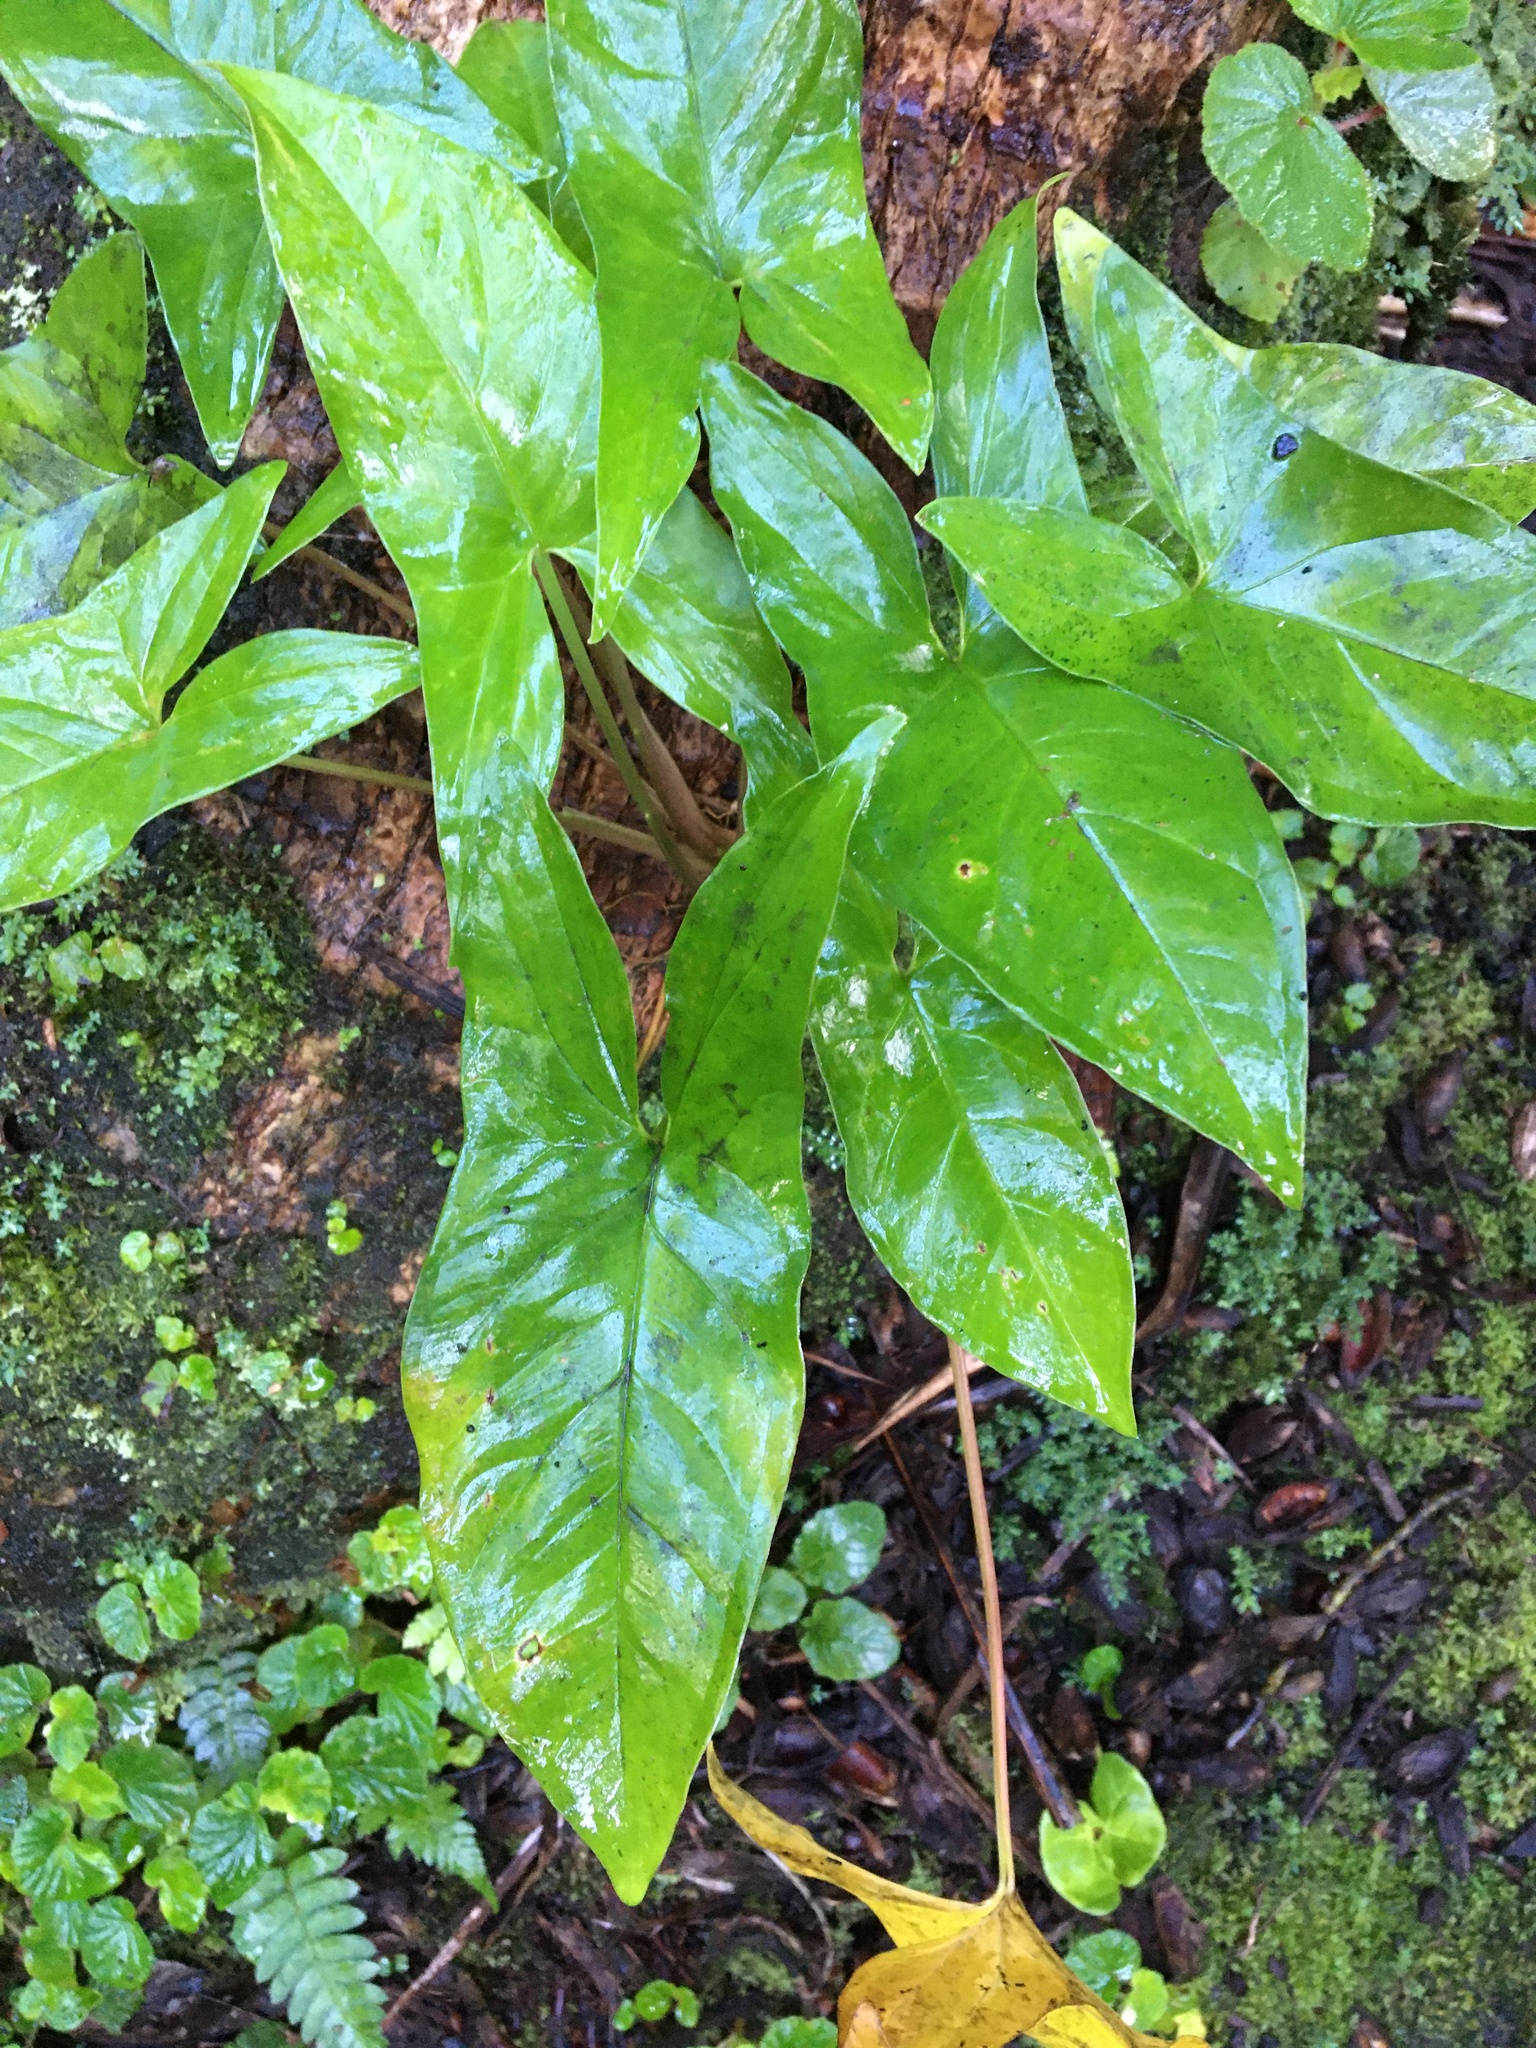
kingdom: Plantae
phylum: Tracheophyta
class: Liliopsida
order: Alismatales
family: Araceae
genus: Syngonium
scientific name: Syngonium podophyllum
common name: American evergreen
